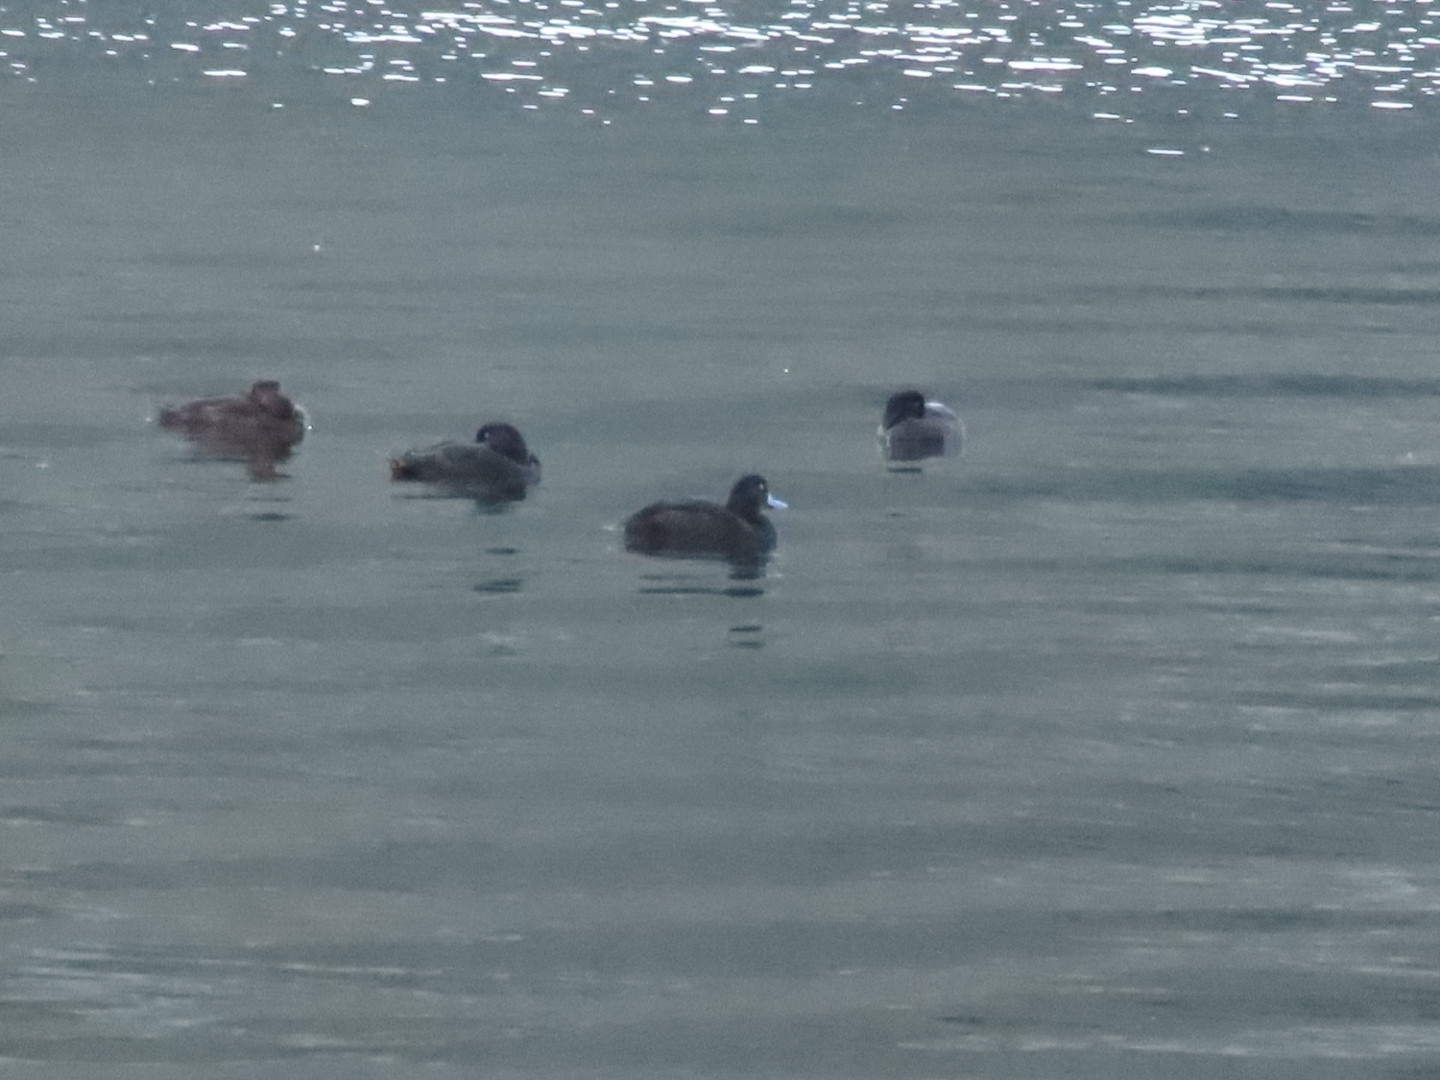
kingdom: Animalia
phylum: Chordata
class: Aves
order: Anseriformes
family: Anatidae
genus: Aythya
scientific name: Aythya novaeseelandiae
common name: New zealand scaup
